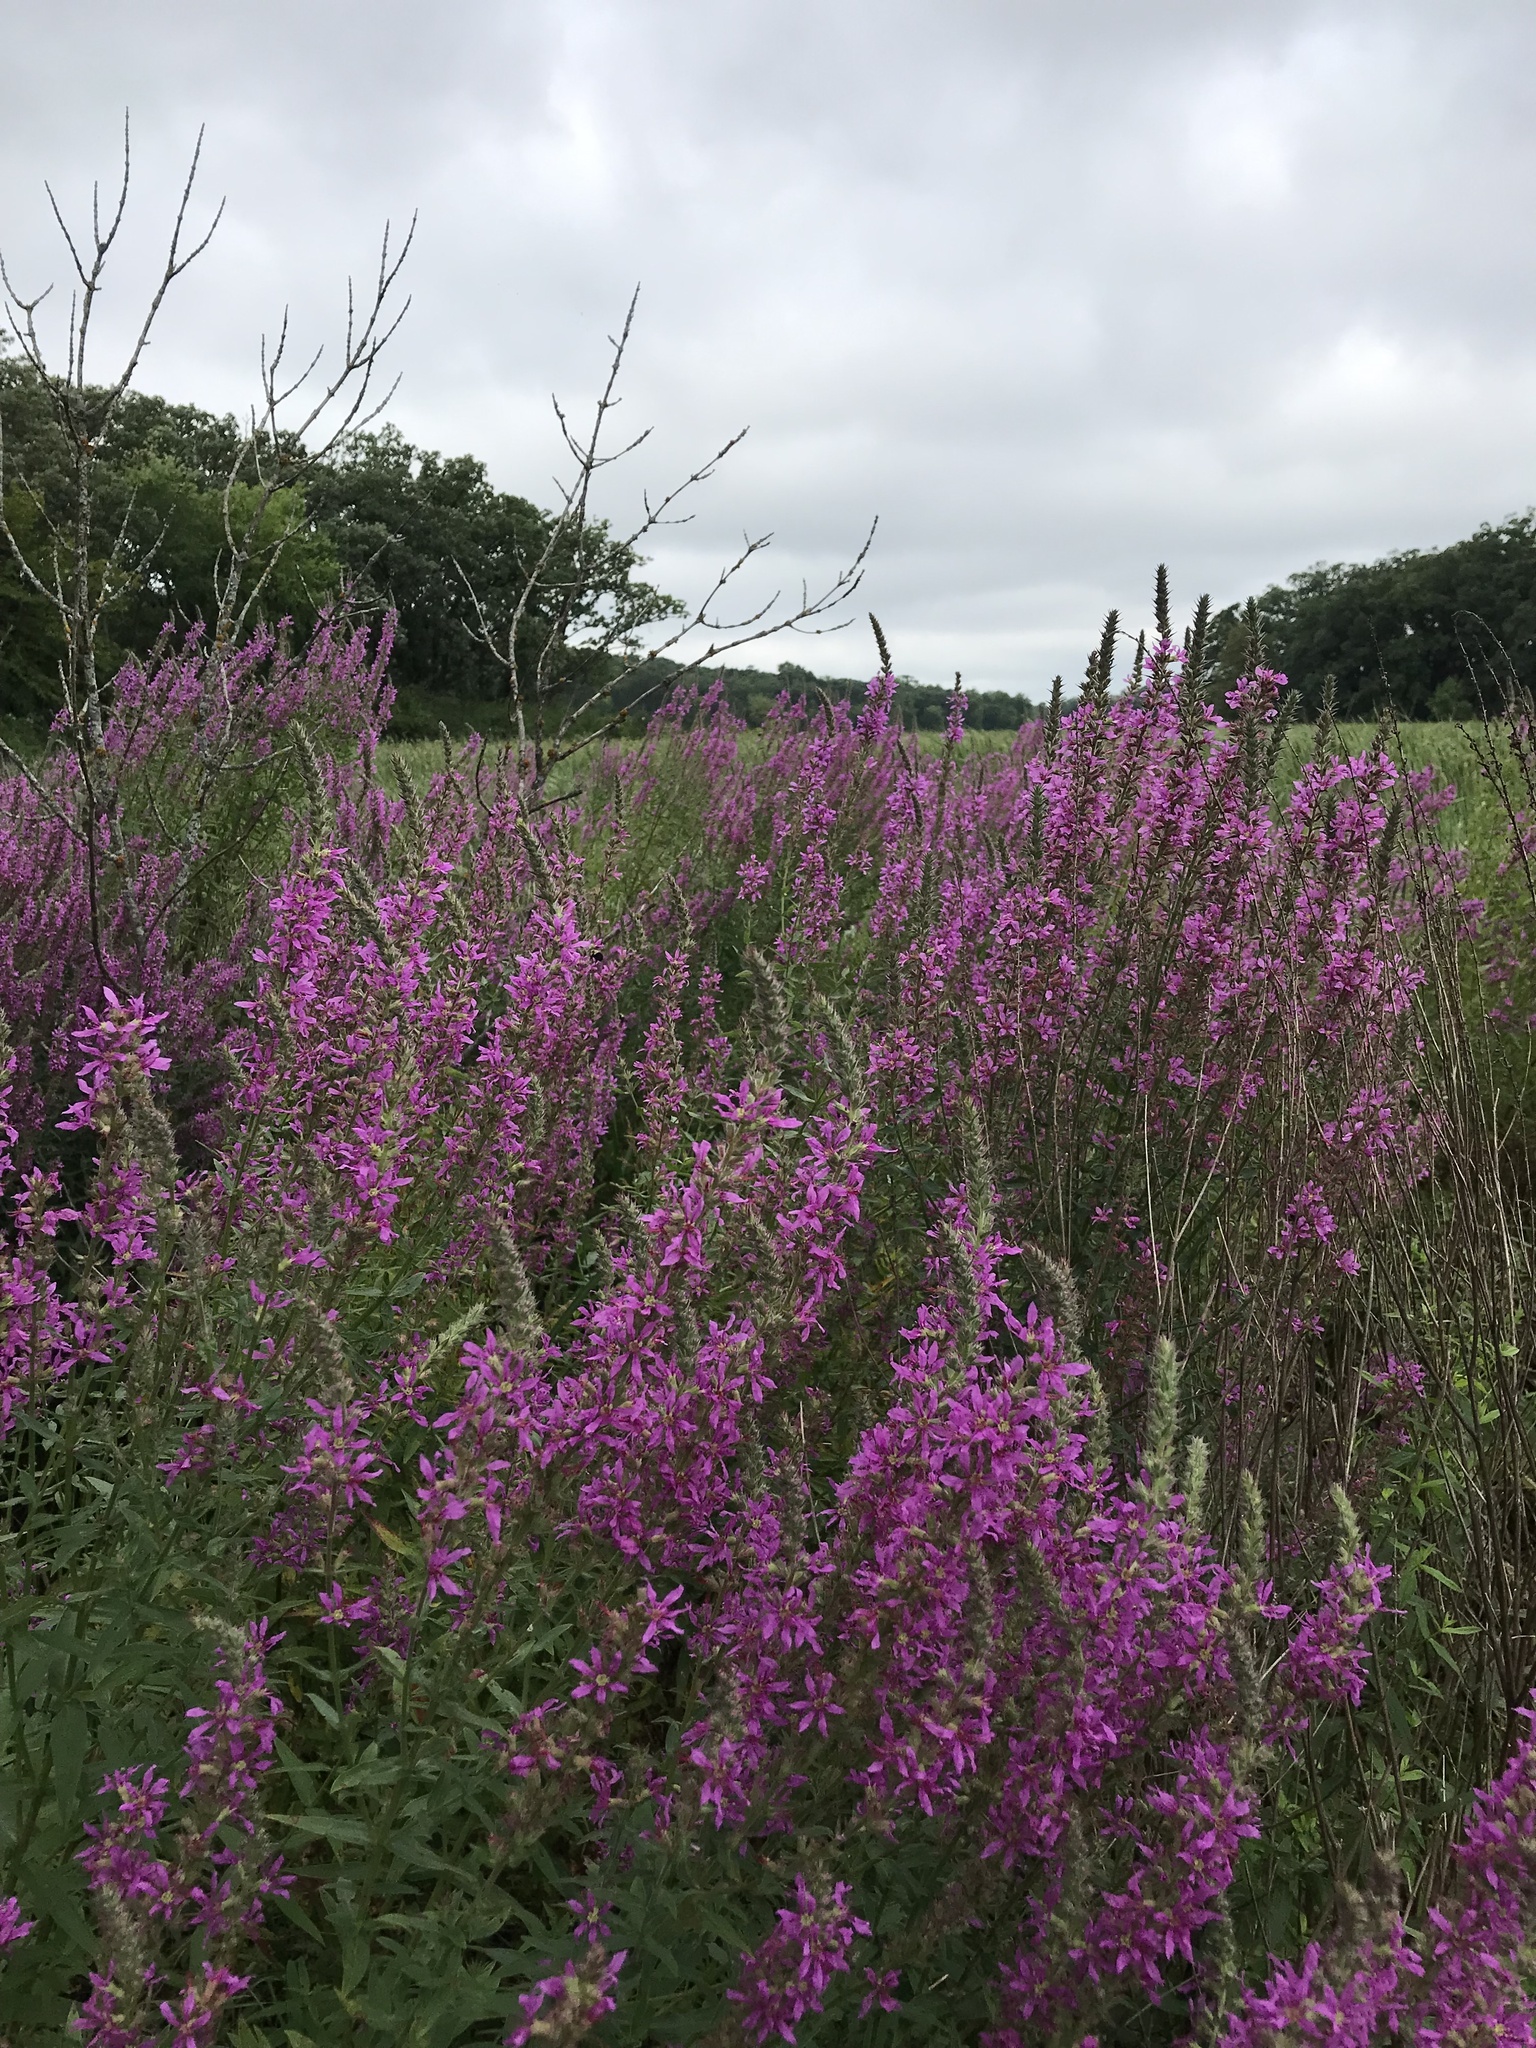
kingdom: Plantae
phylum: Tracheophyta
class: Magnoliopsida
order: Myrtales
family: Lythraceae
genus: Lythrum
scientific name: Lythrum salicaria
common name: Purple loosestrife
